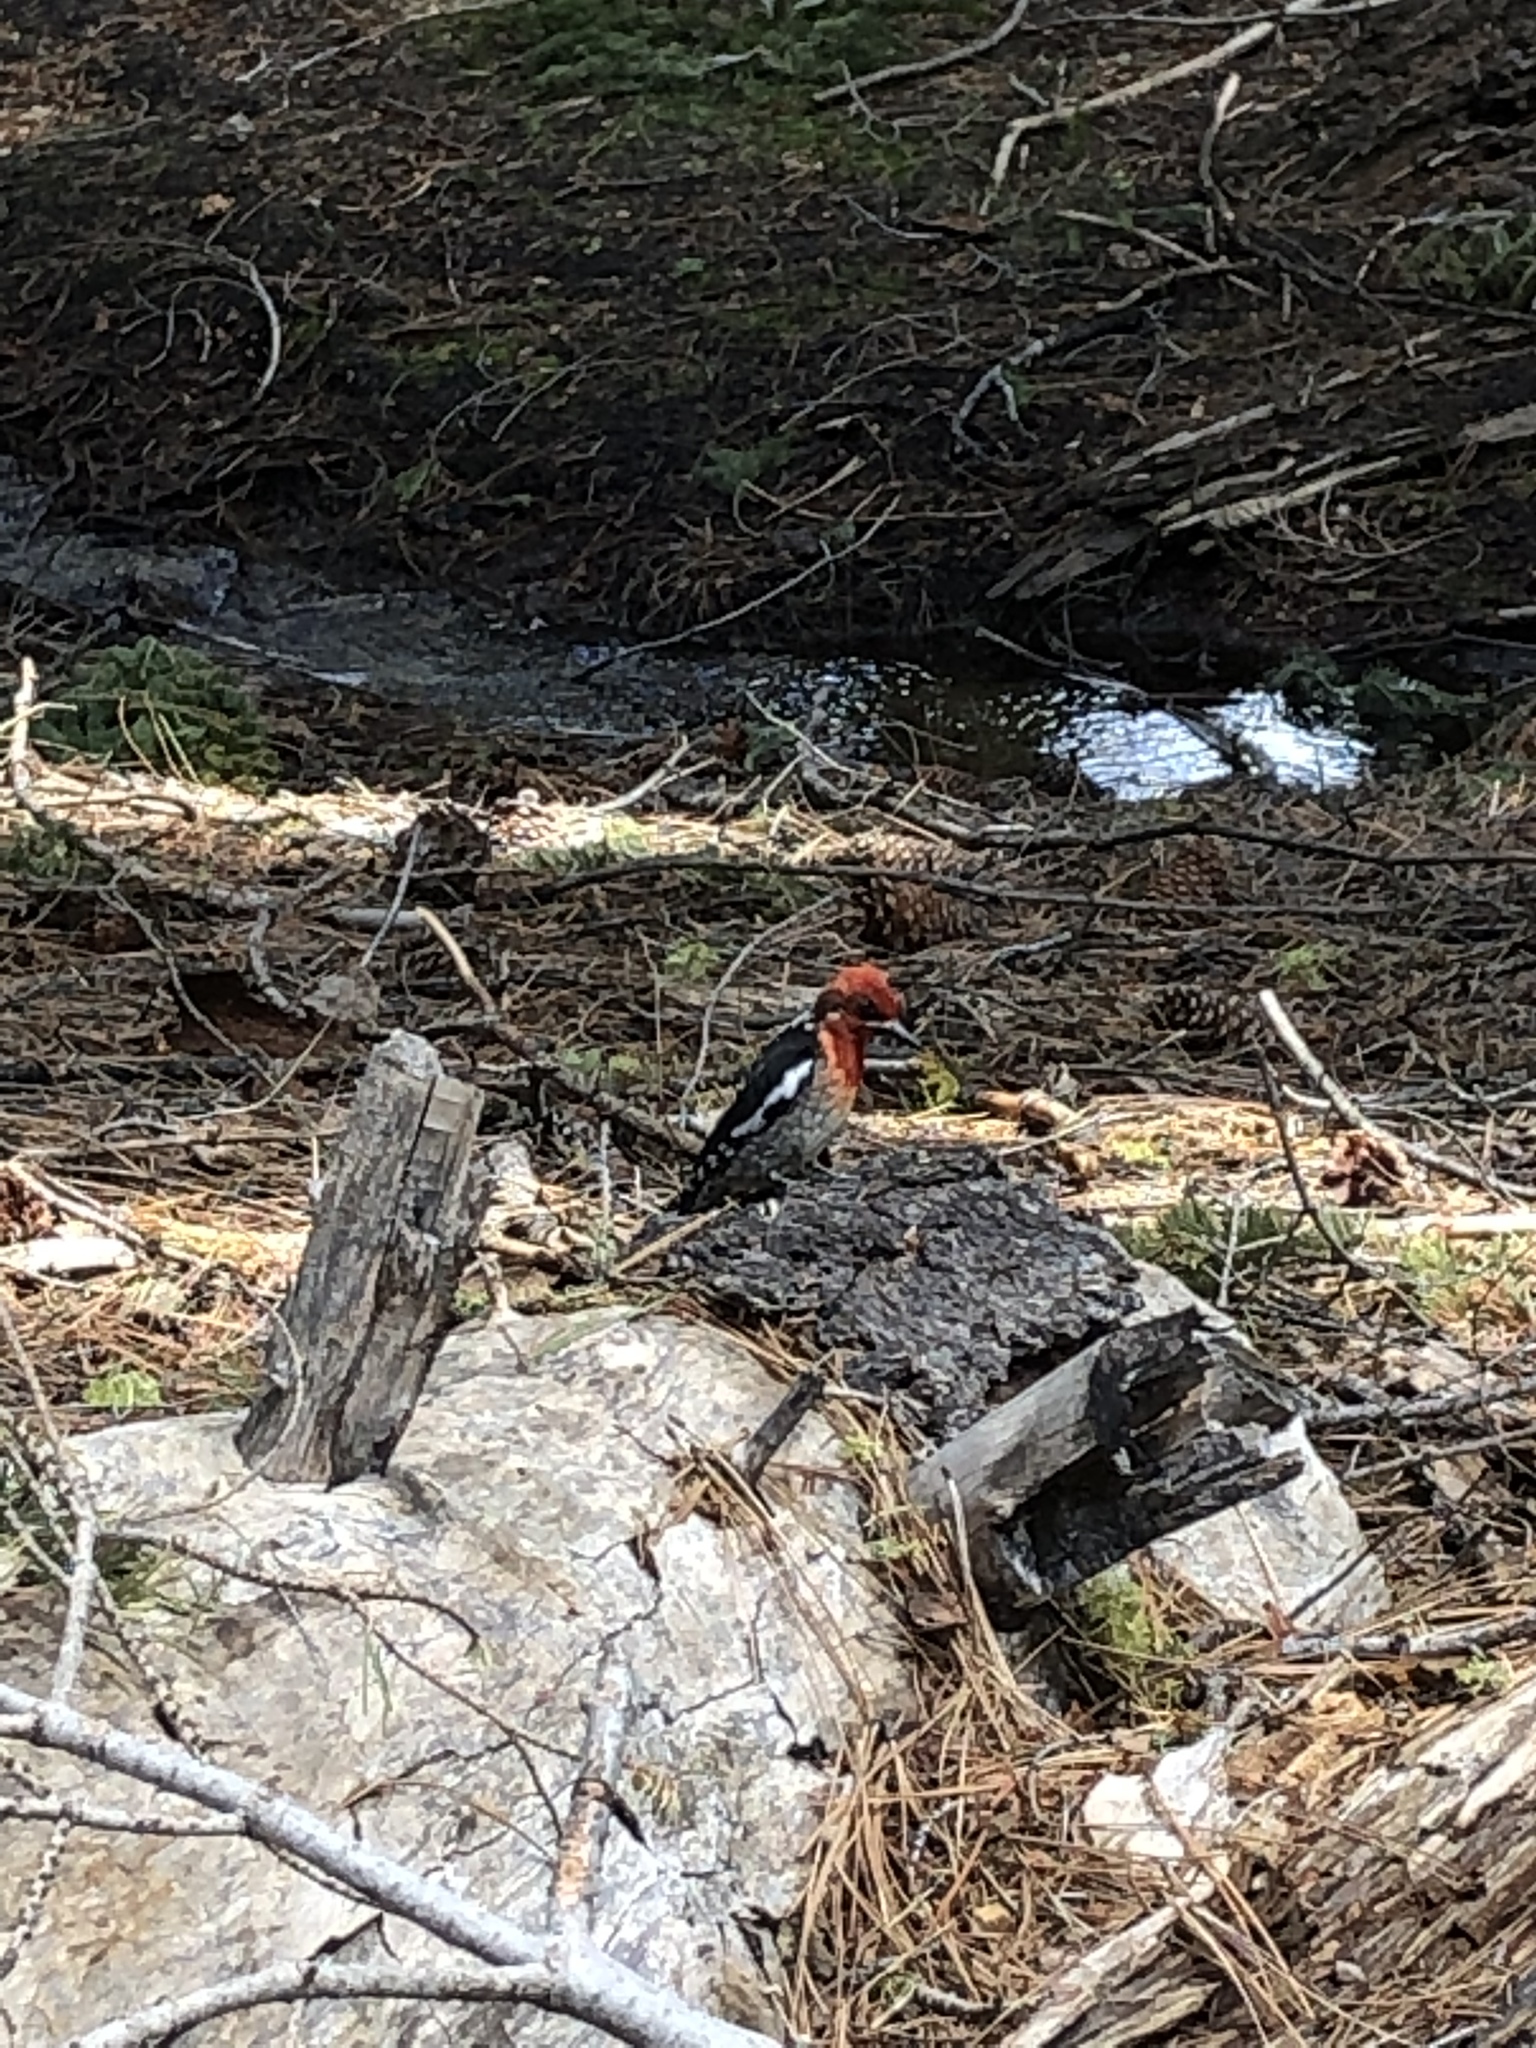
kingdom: Animalia
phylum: Chordata
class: Aves
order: Piciformes
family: Picidae
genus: Sphyrapicus
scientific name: Sphyrapicus ruber
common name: Red-breasted sapsucker
